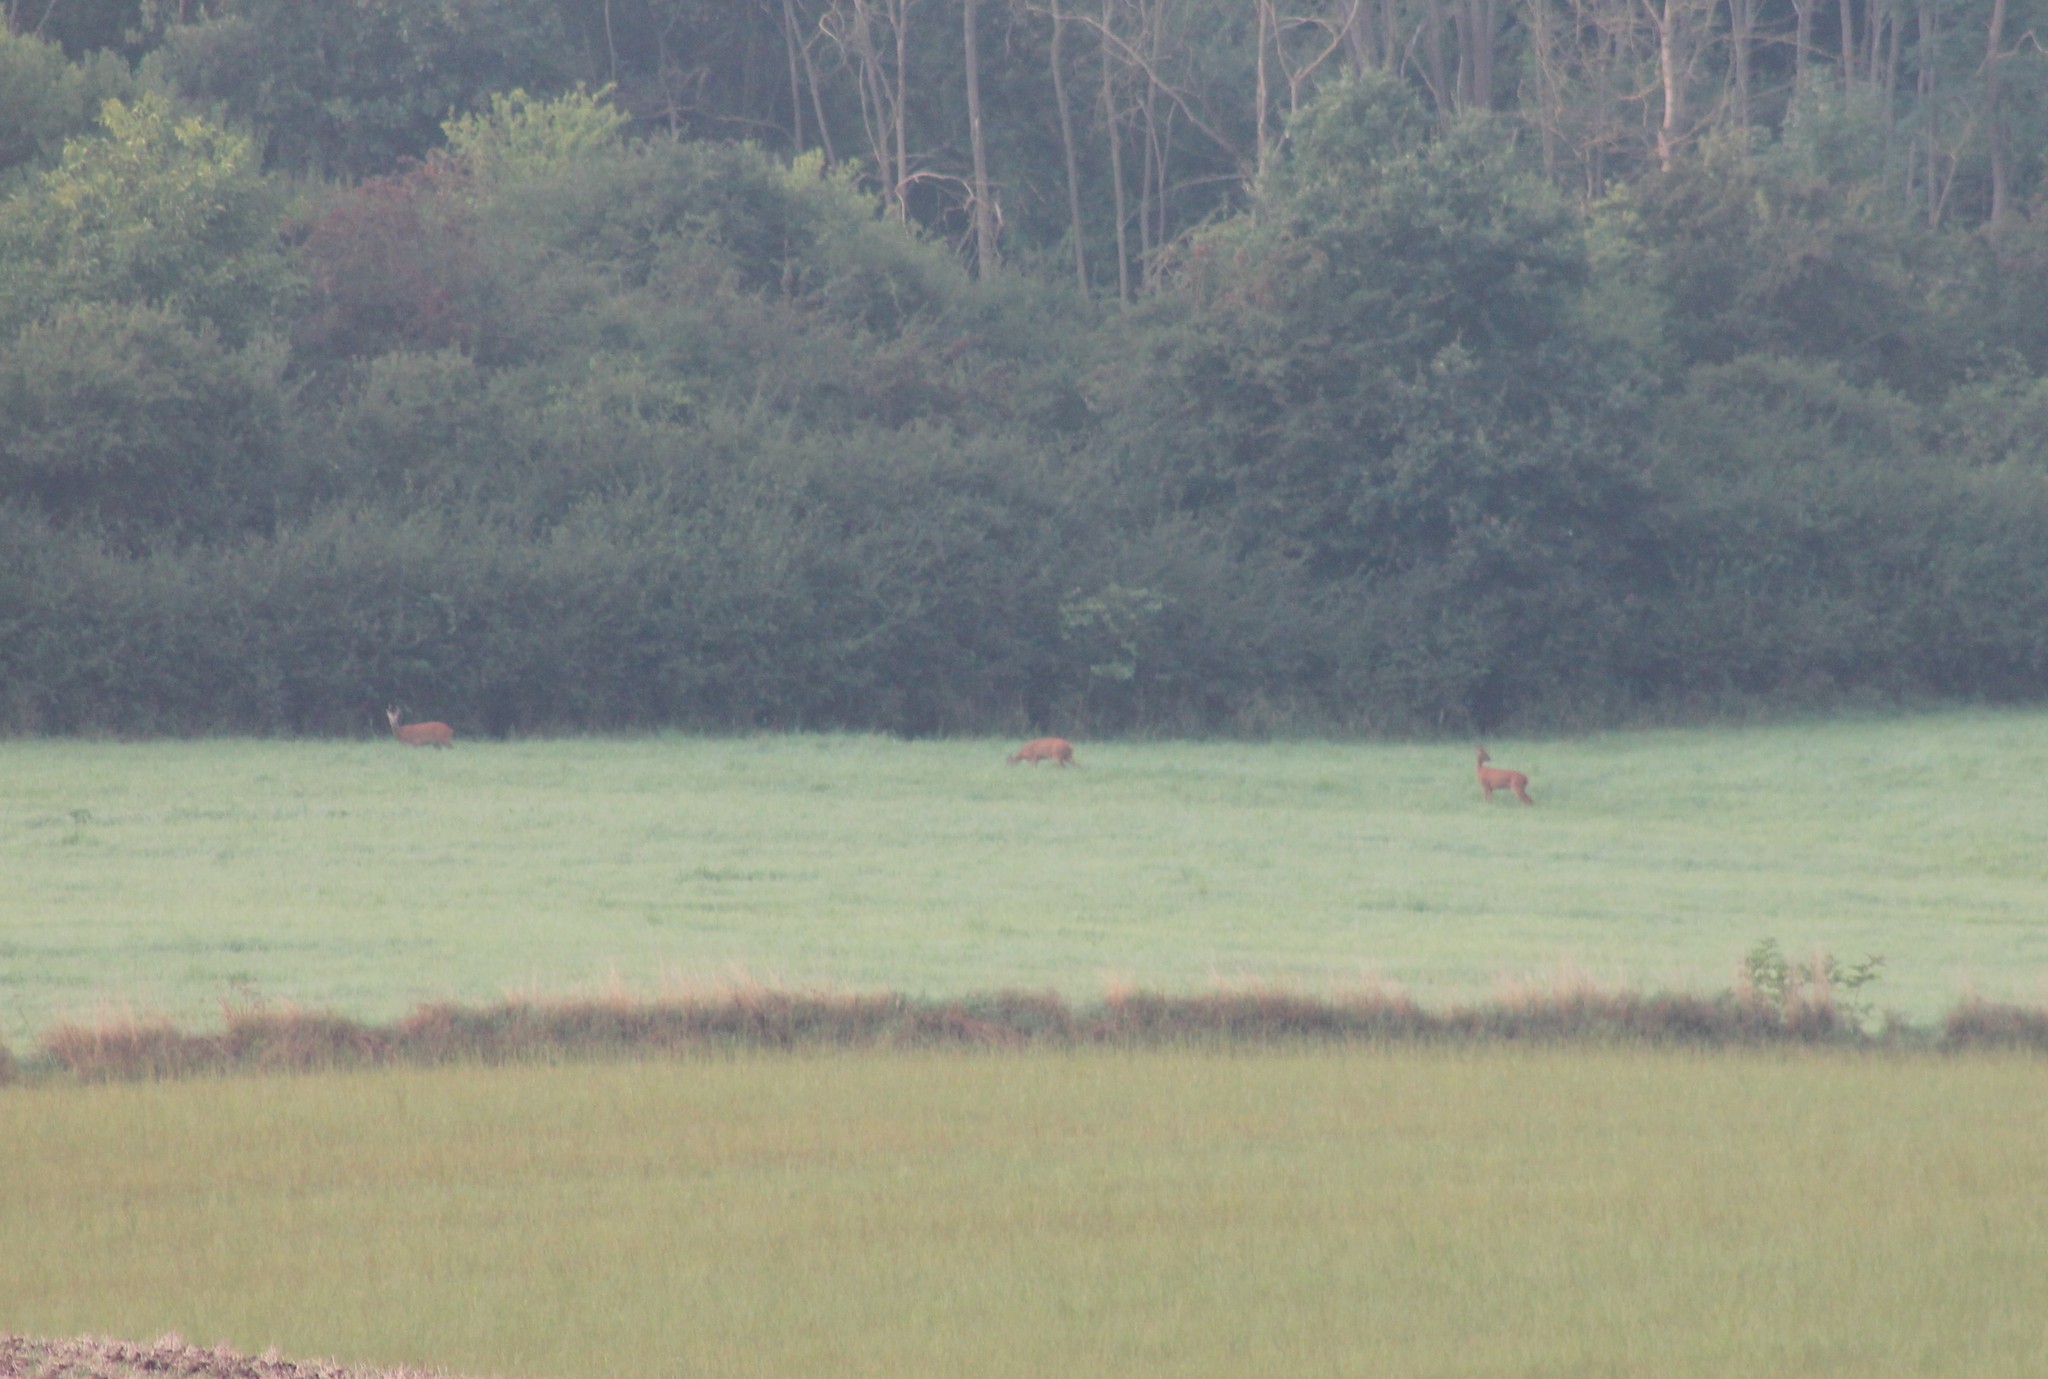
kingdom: Animalia
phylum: Chordata
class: Mammalia
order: Artiodactyla
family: Cervidae
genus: Capreolus
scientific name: Capreolus capreolus
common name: Western roe deer
